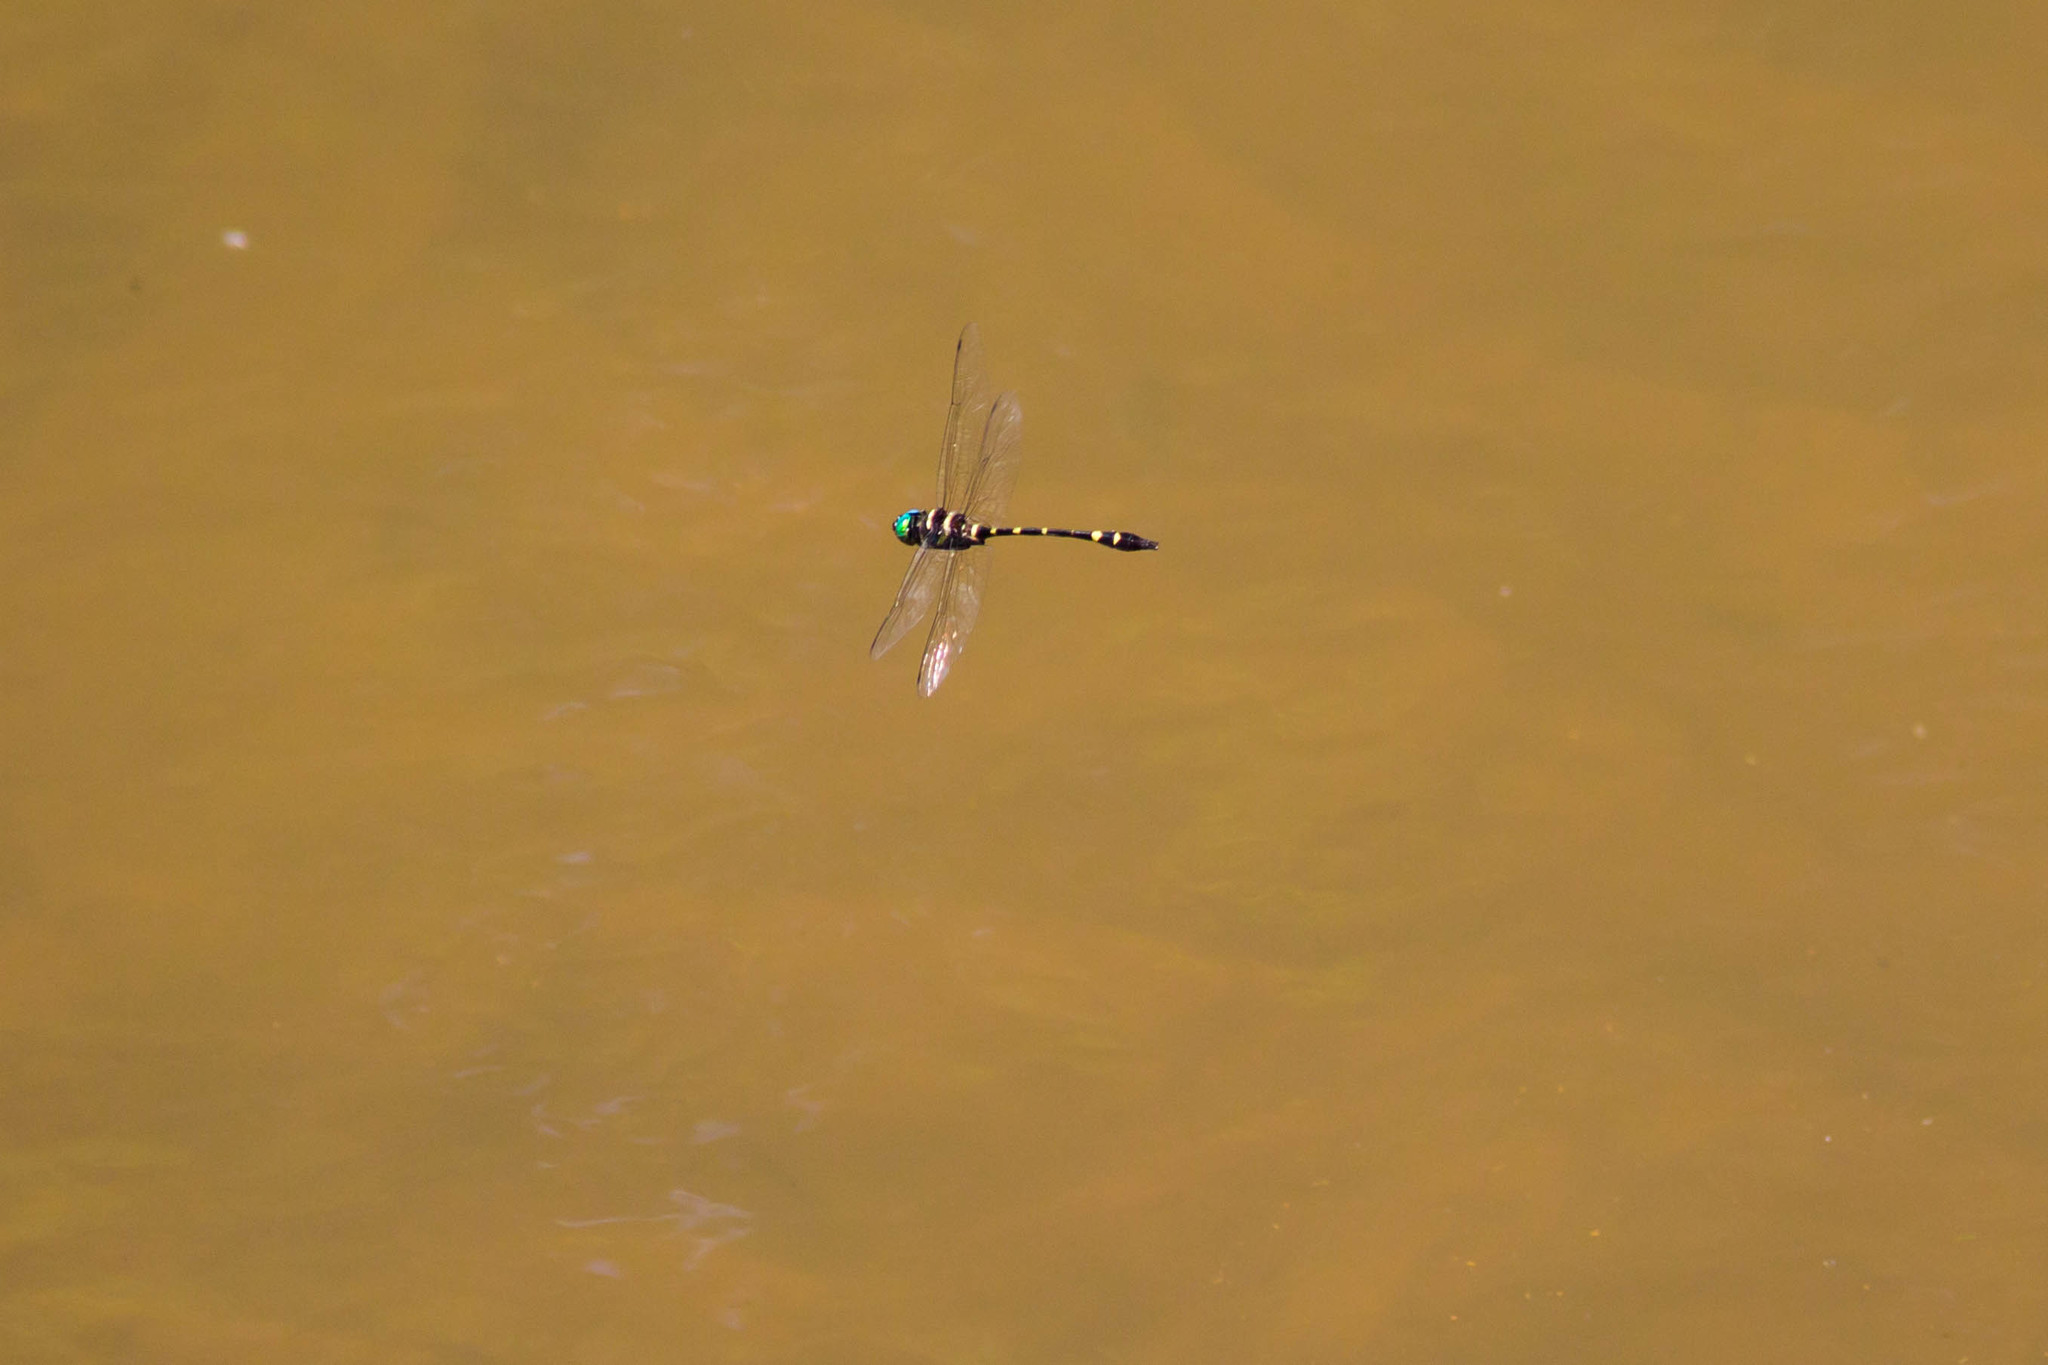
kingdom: Animalia
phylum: Arthropoda
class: Insecta
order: Odonata
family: Macromiidae
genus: Macromia
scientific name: Macromia illinoiensis
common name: Swift river cruiser
